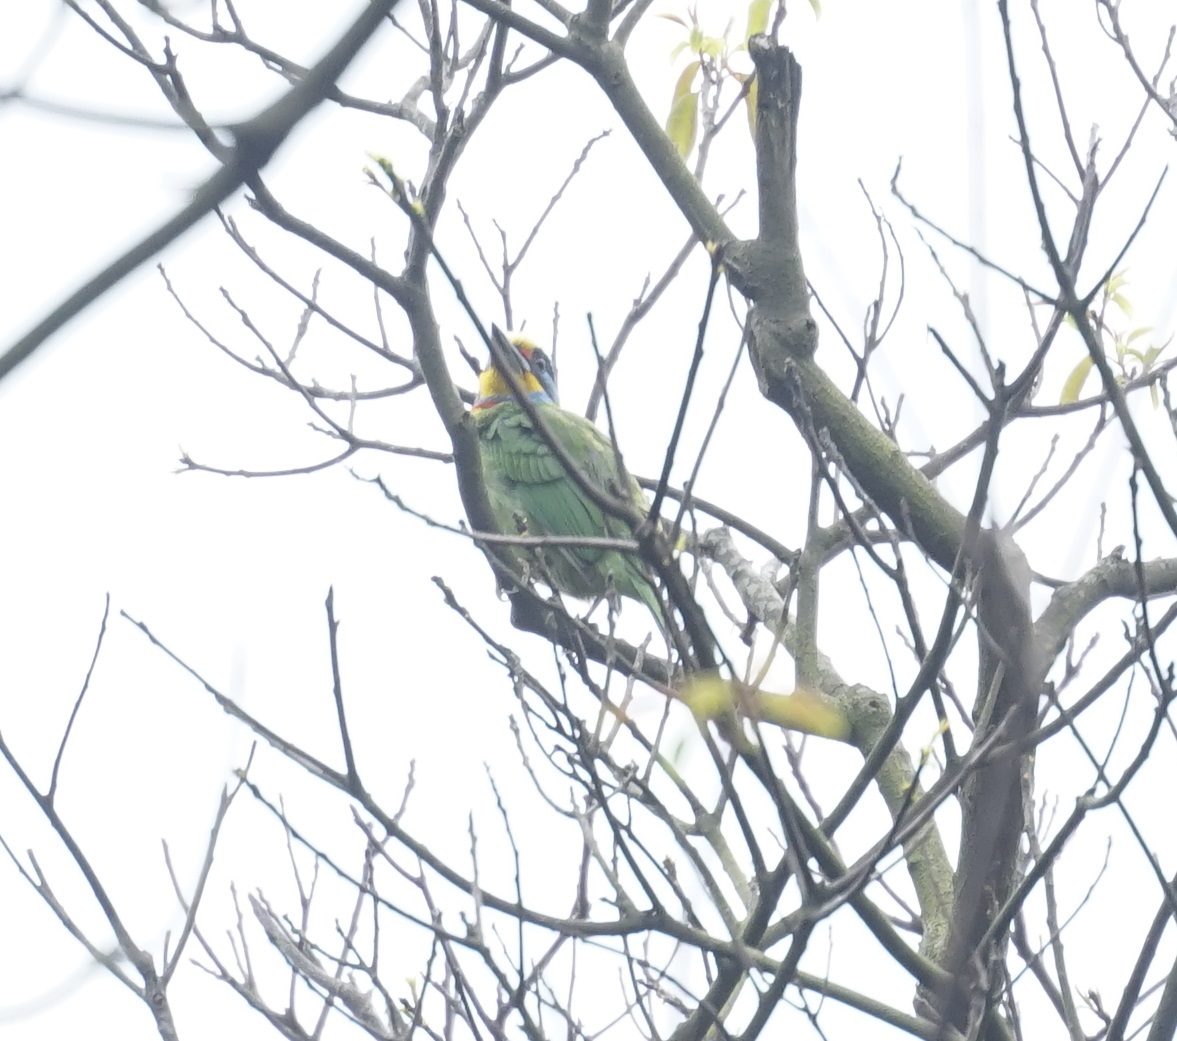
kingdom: Animalia
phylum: Chordata
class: Aves
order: Piciformes
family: Megalaimidae
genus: Psilopogon
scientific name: Psilopogon nuchalis
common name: Taiwan barbet
